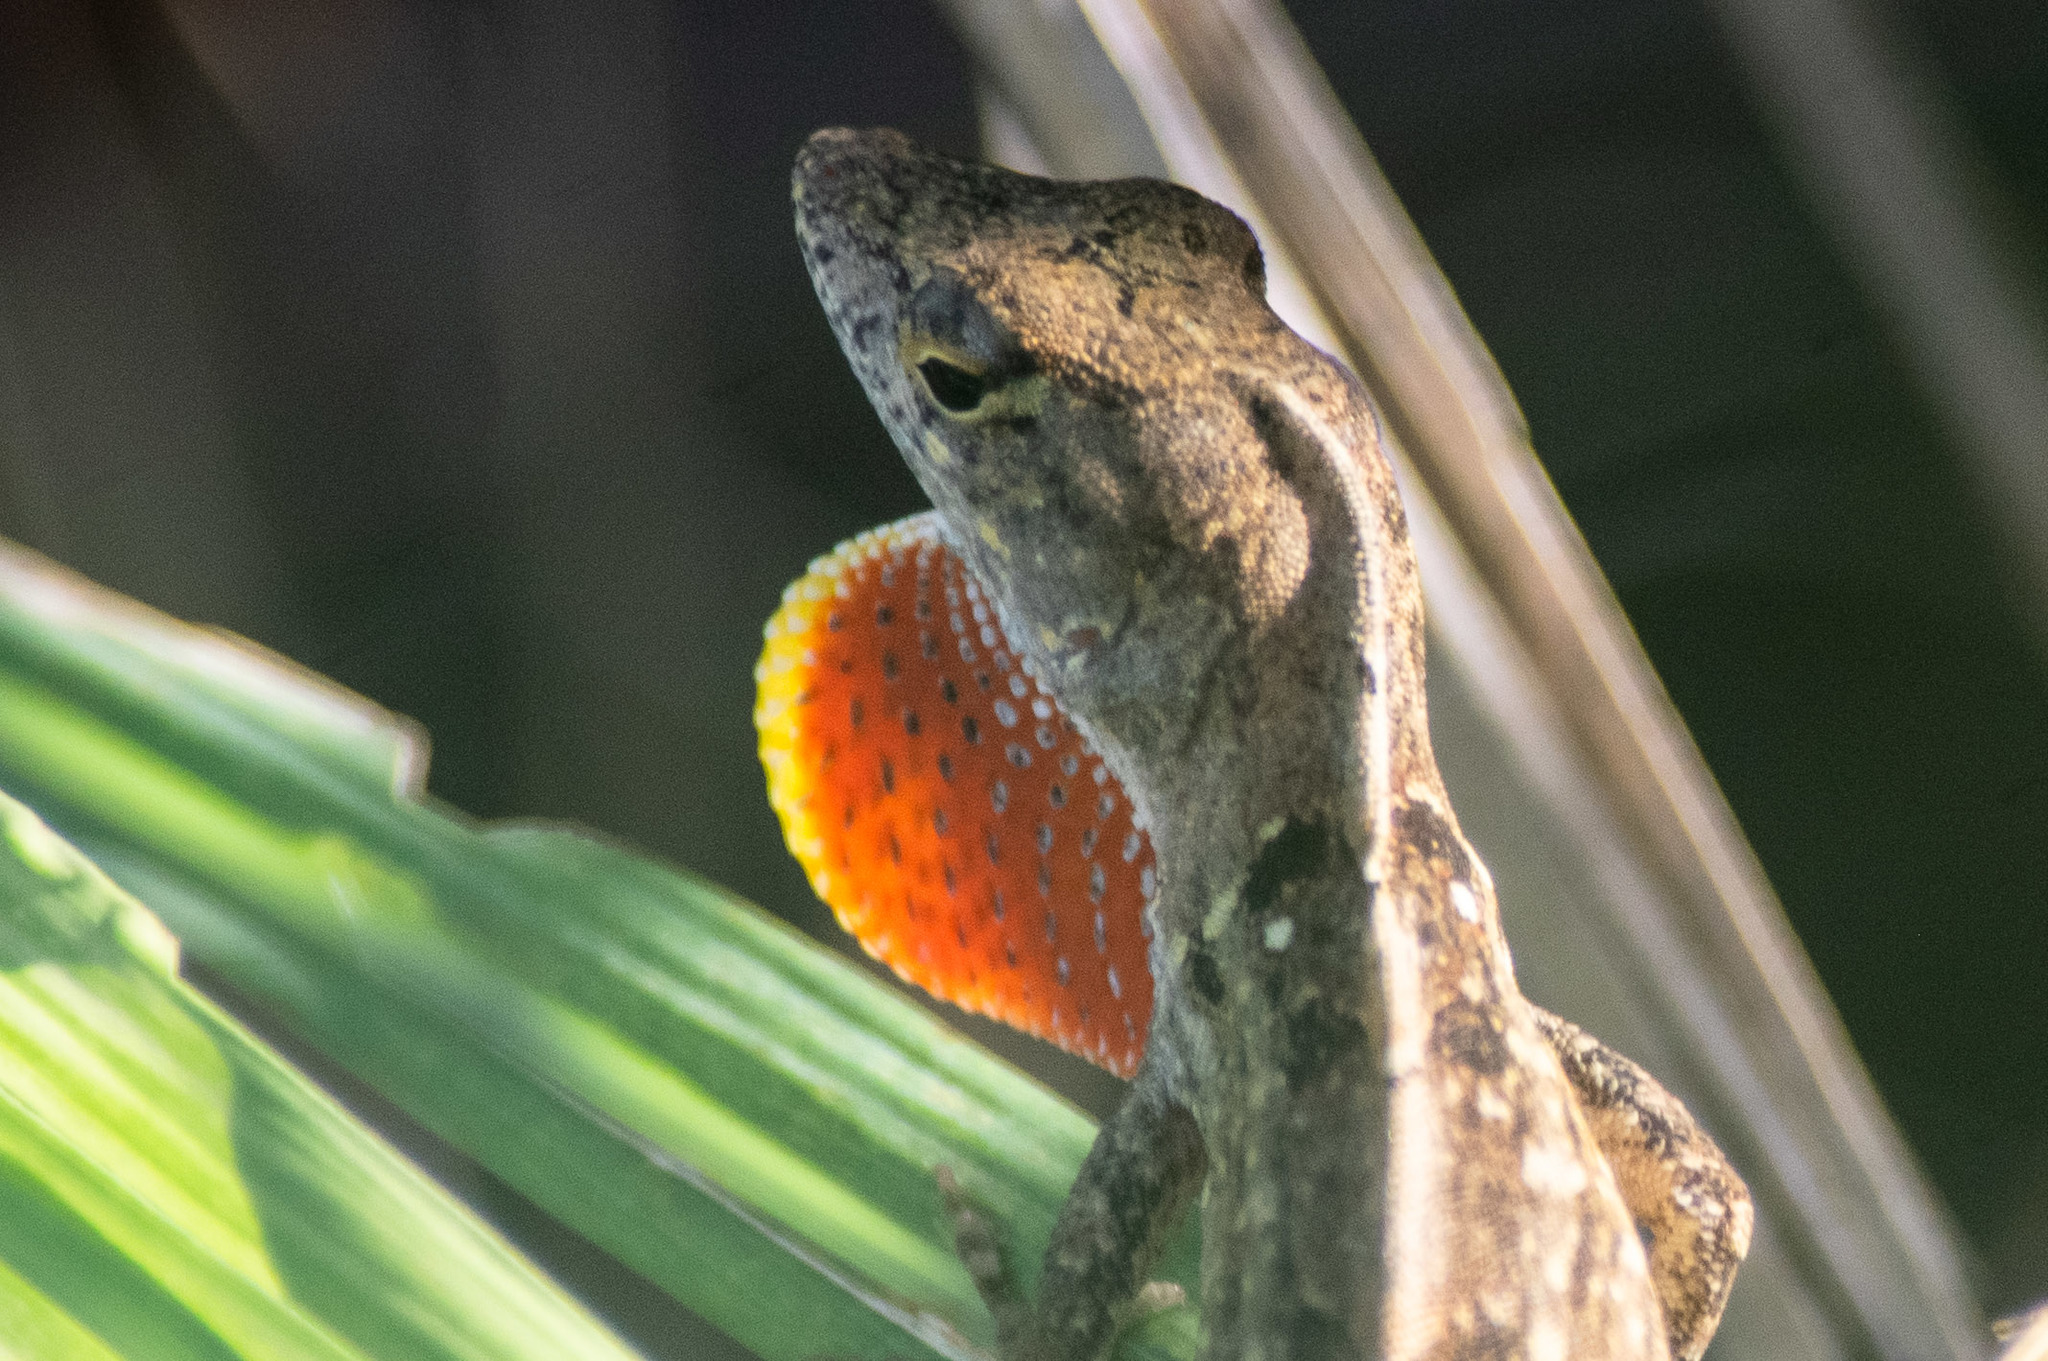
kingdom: Animalia
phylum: Chordata
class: Squamata
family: Dactyloidae
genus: Anolis
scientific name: Anolis sagrei
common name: Brown anole
